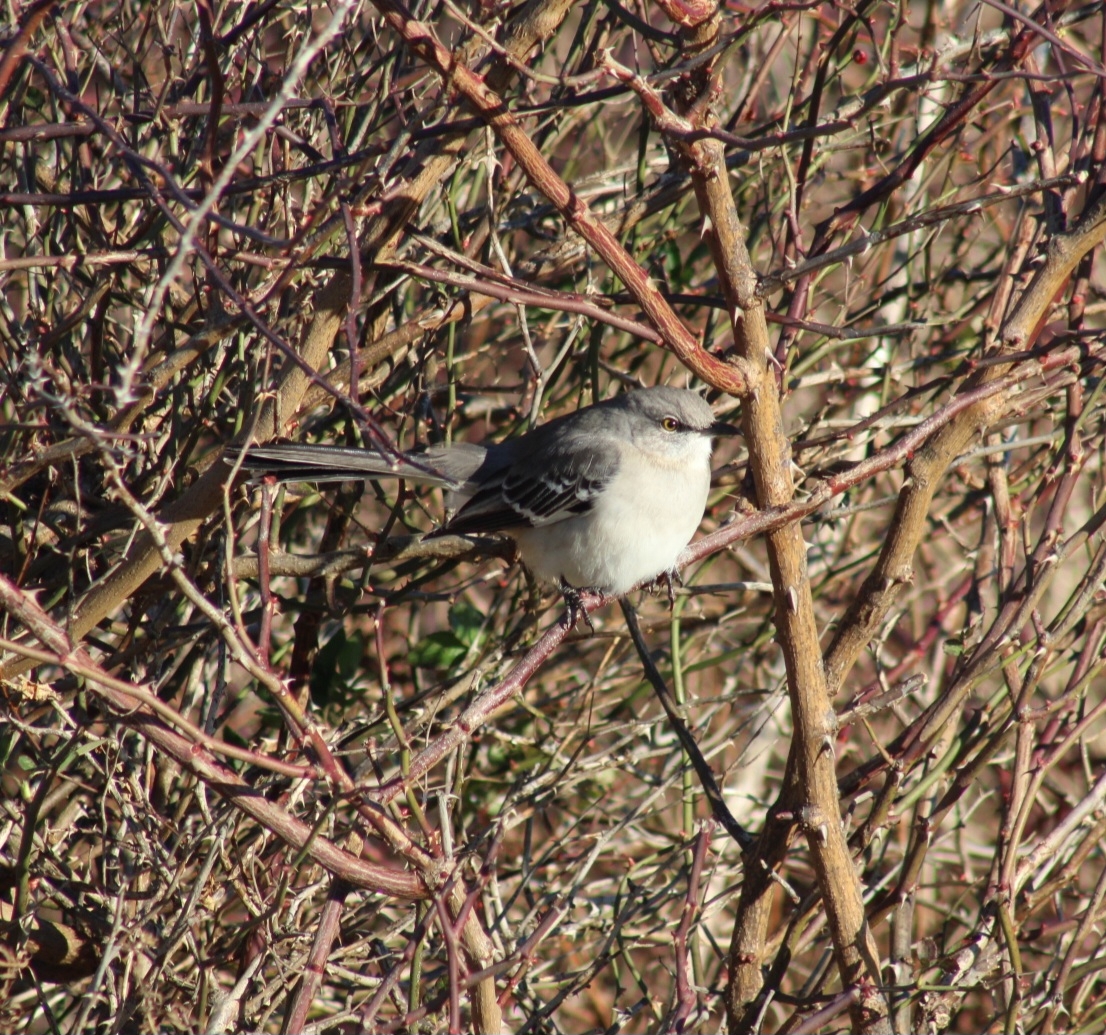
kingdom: Animalia
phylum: Chordata
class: Aves
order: Passeriformes
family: Mimidae
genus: Mimus
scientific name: Mimus polyglottos
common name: Northern mockingbird
